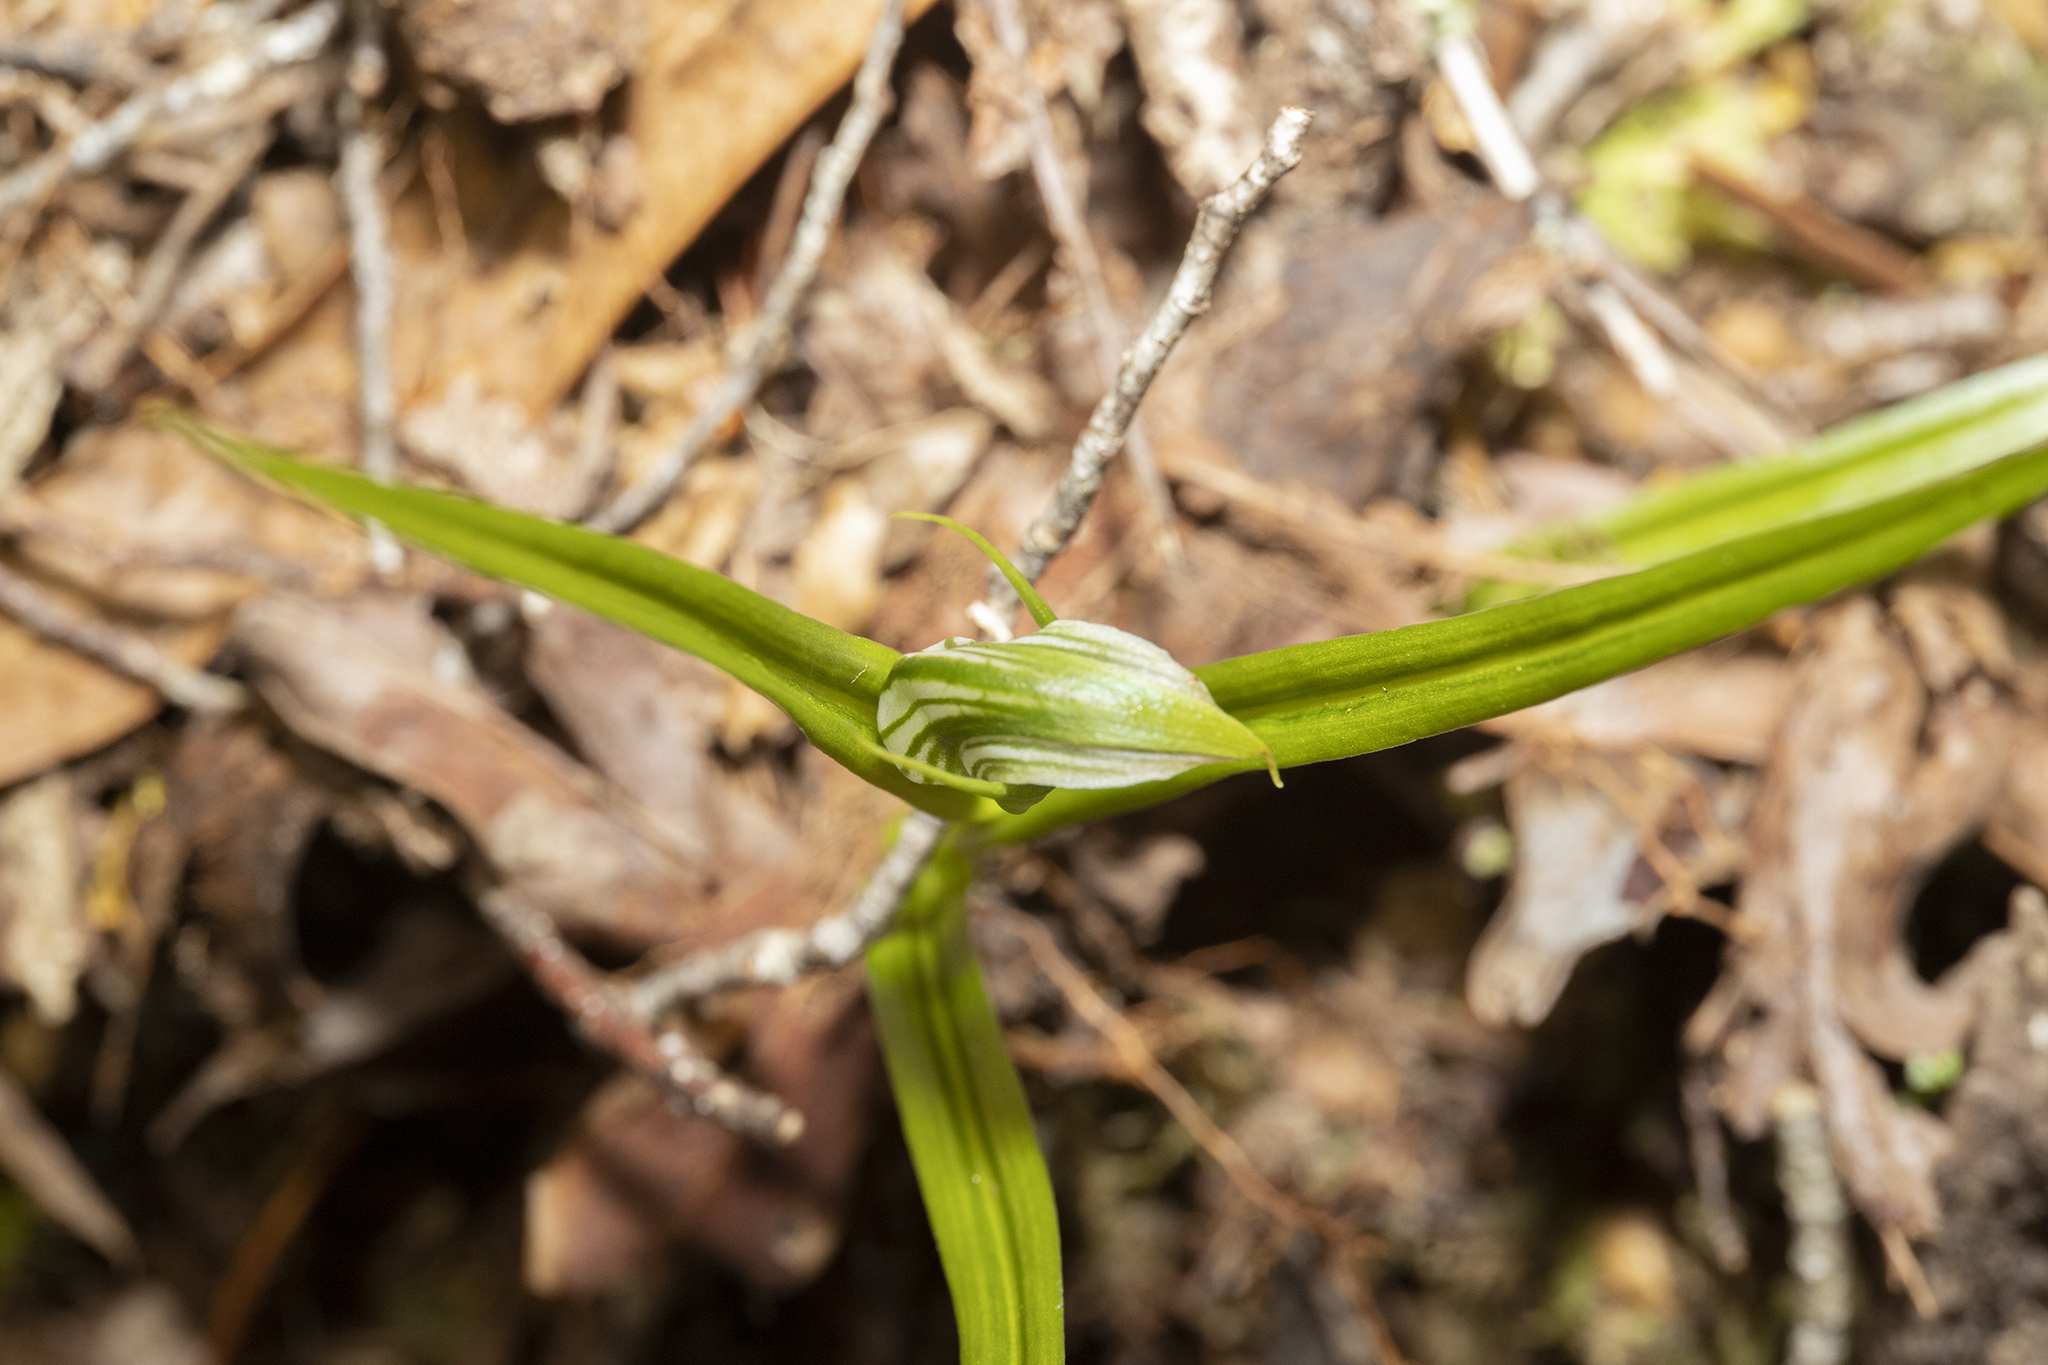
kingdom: Plantae
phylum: Tracheophyta
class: Liliopsida
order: Asparagales
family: Orchidaceae
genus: Pterostylis
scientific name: Pterostylis irsoniana
